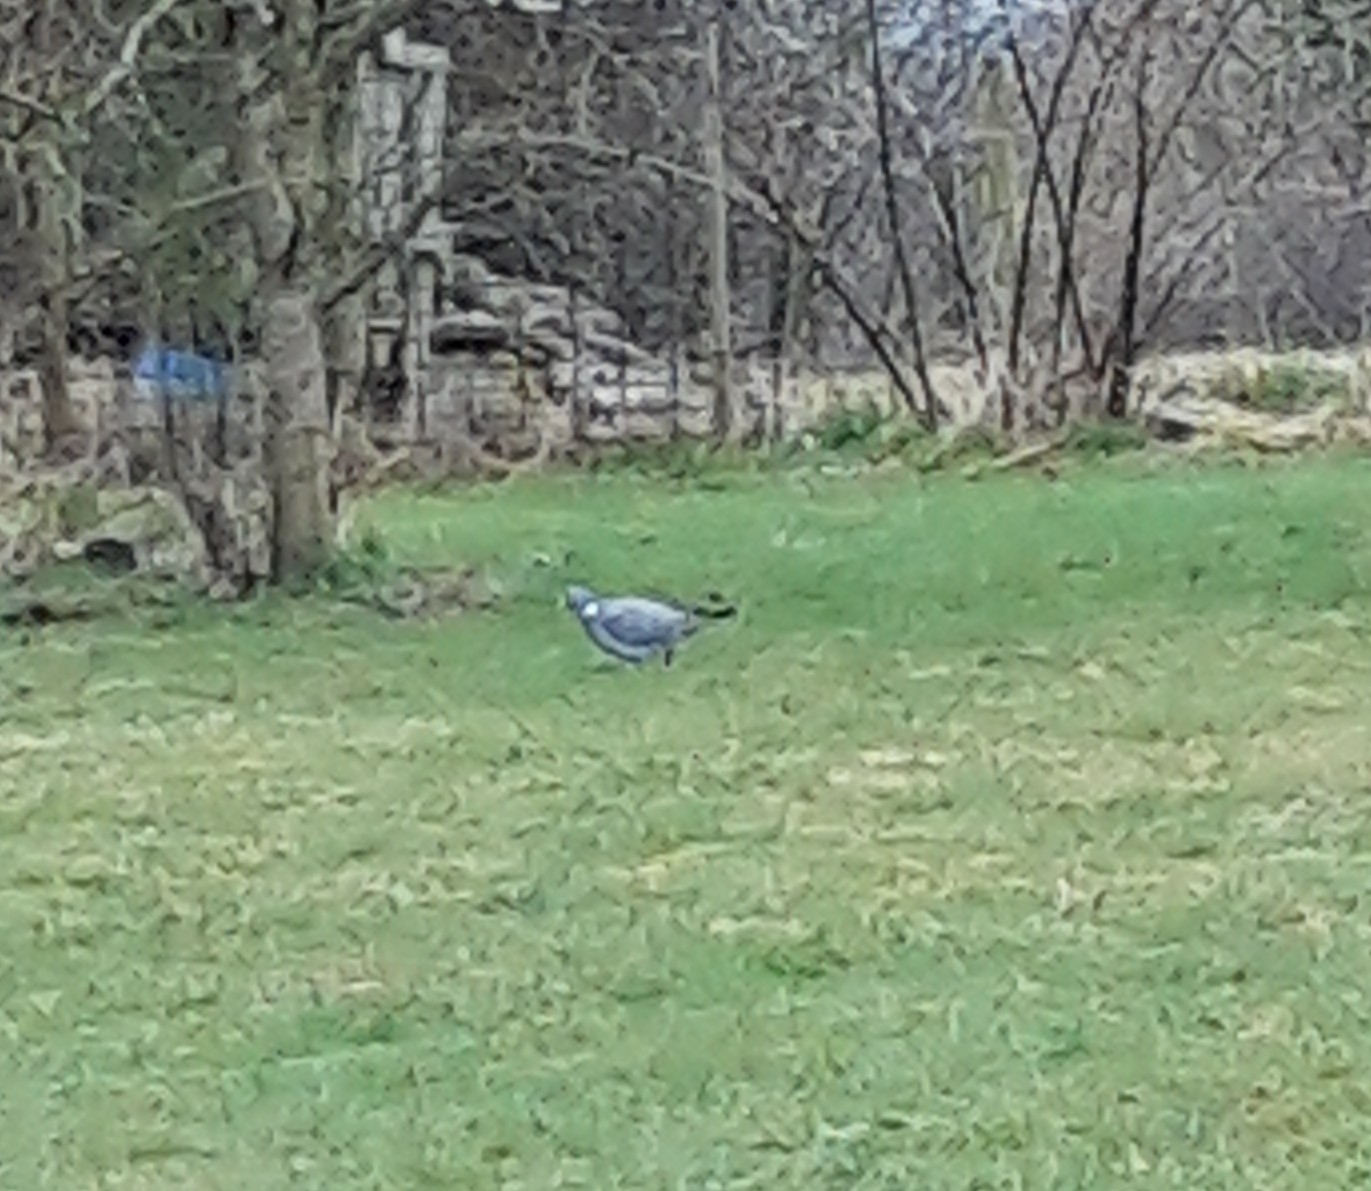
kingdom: Animalia
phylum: Chordata
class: Aves
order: Columbiformes
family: Columbidae
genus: Columba
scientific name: Columba palumbus
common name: Common wood pigeon
